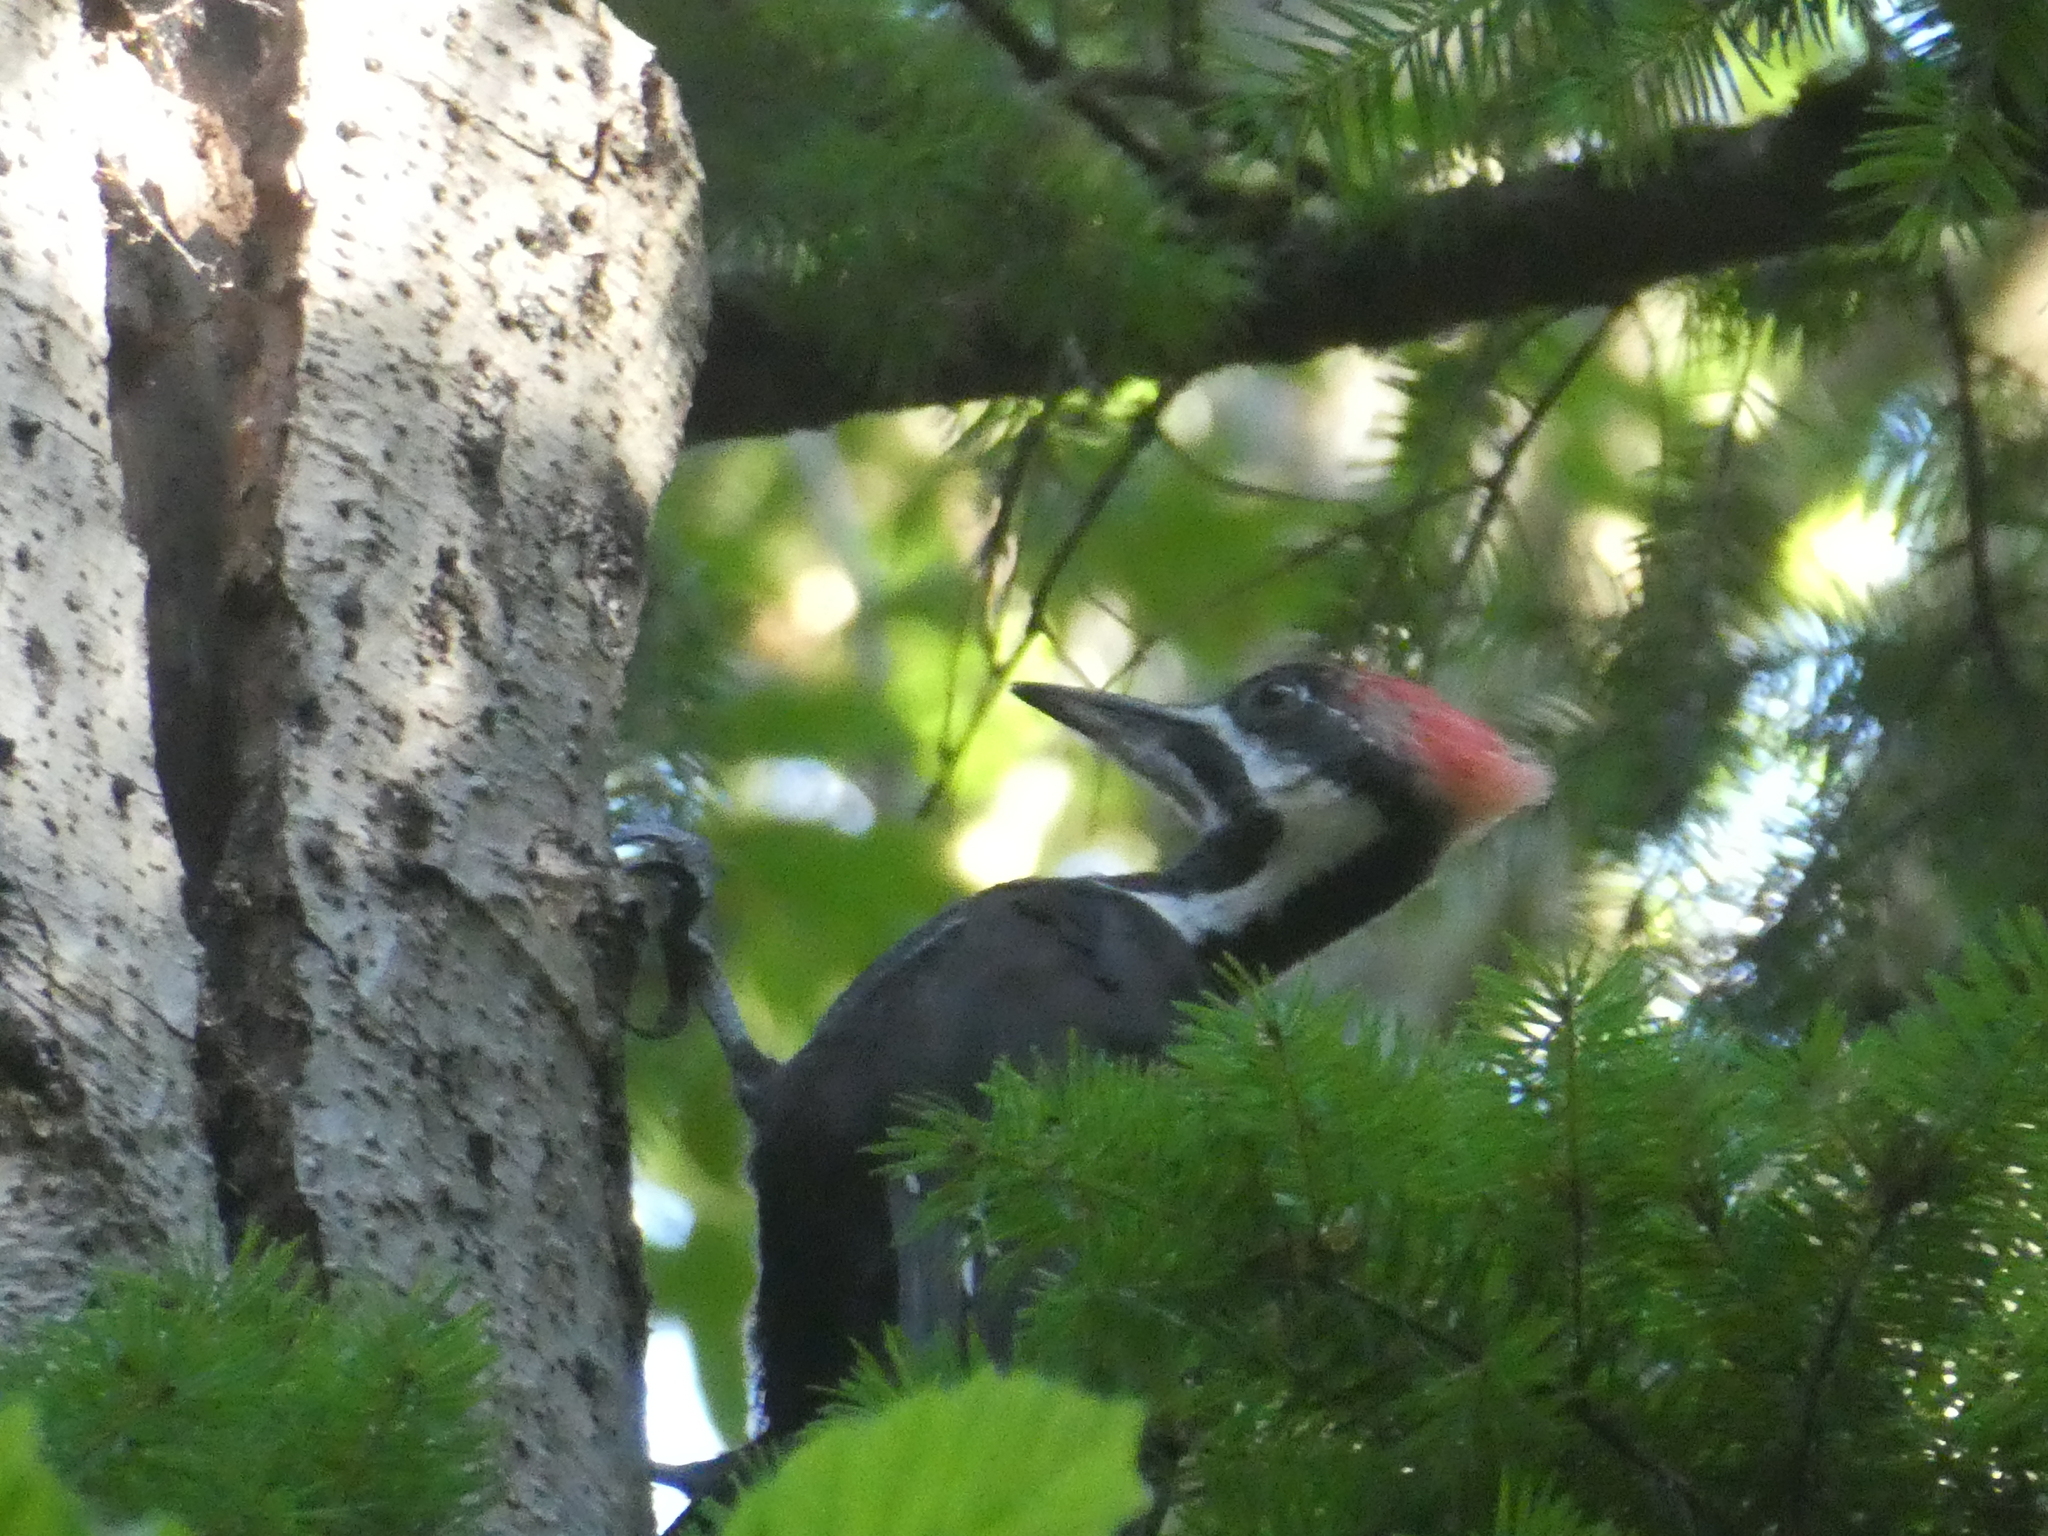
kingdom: Animalia
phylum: Chordata
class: Aves
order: Piciformes
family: Picidae
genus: Dryocopus
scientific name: Dryocopus pileatus
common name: Pileated woodpecker
